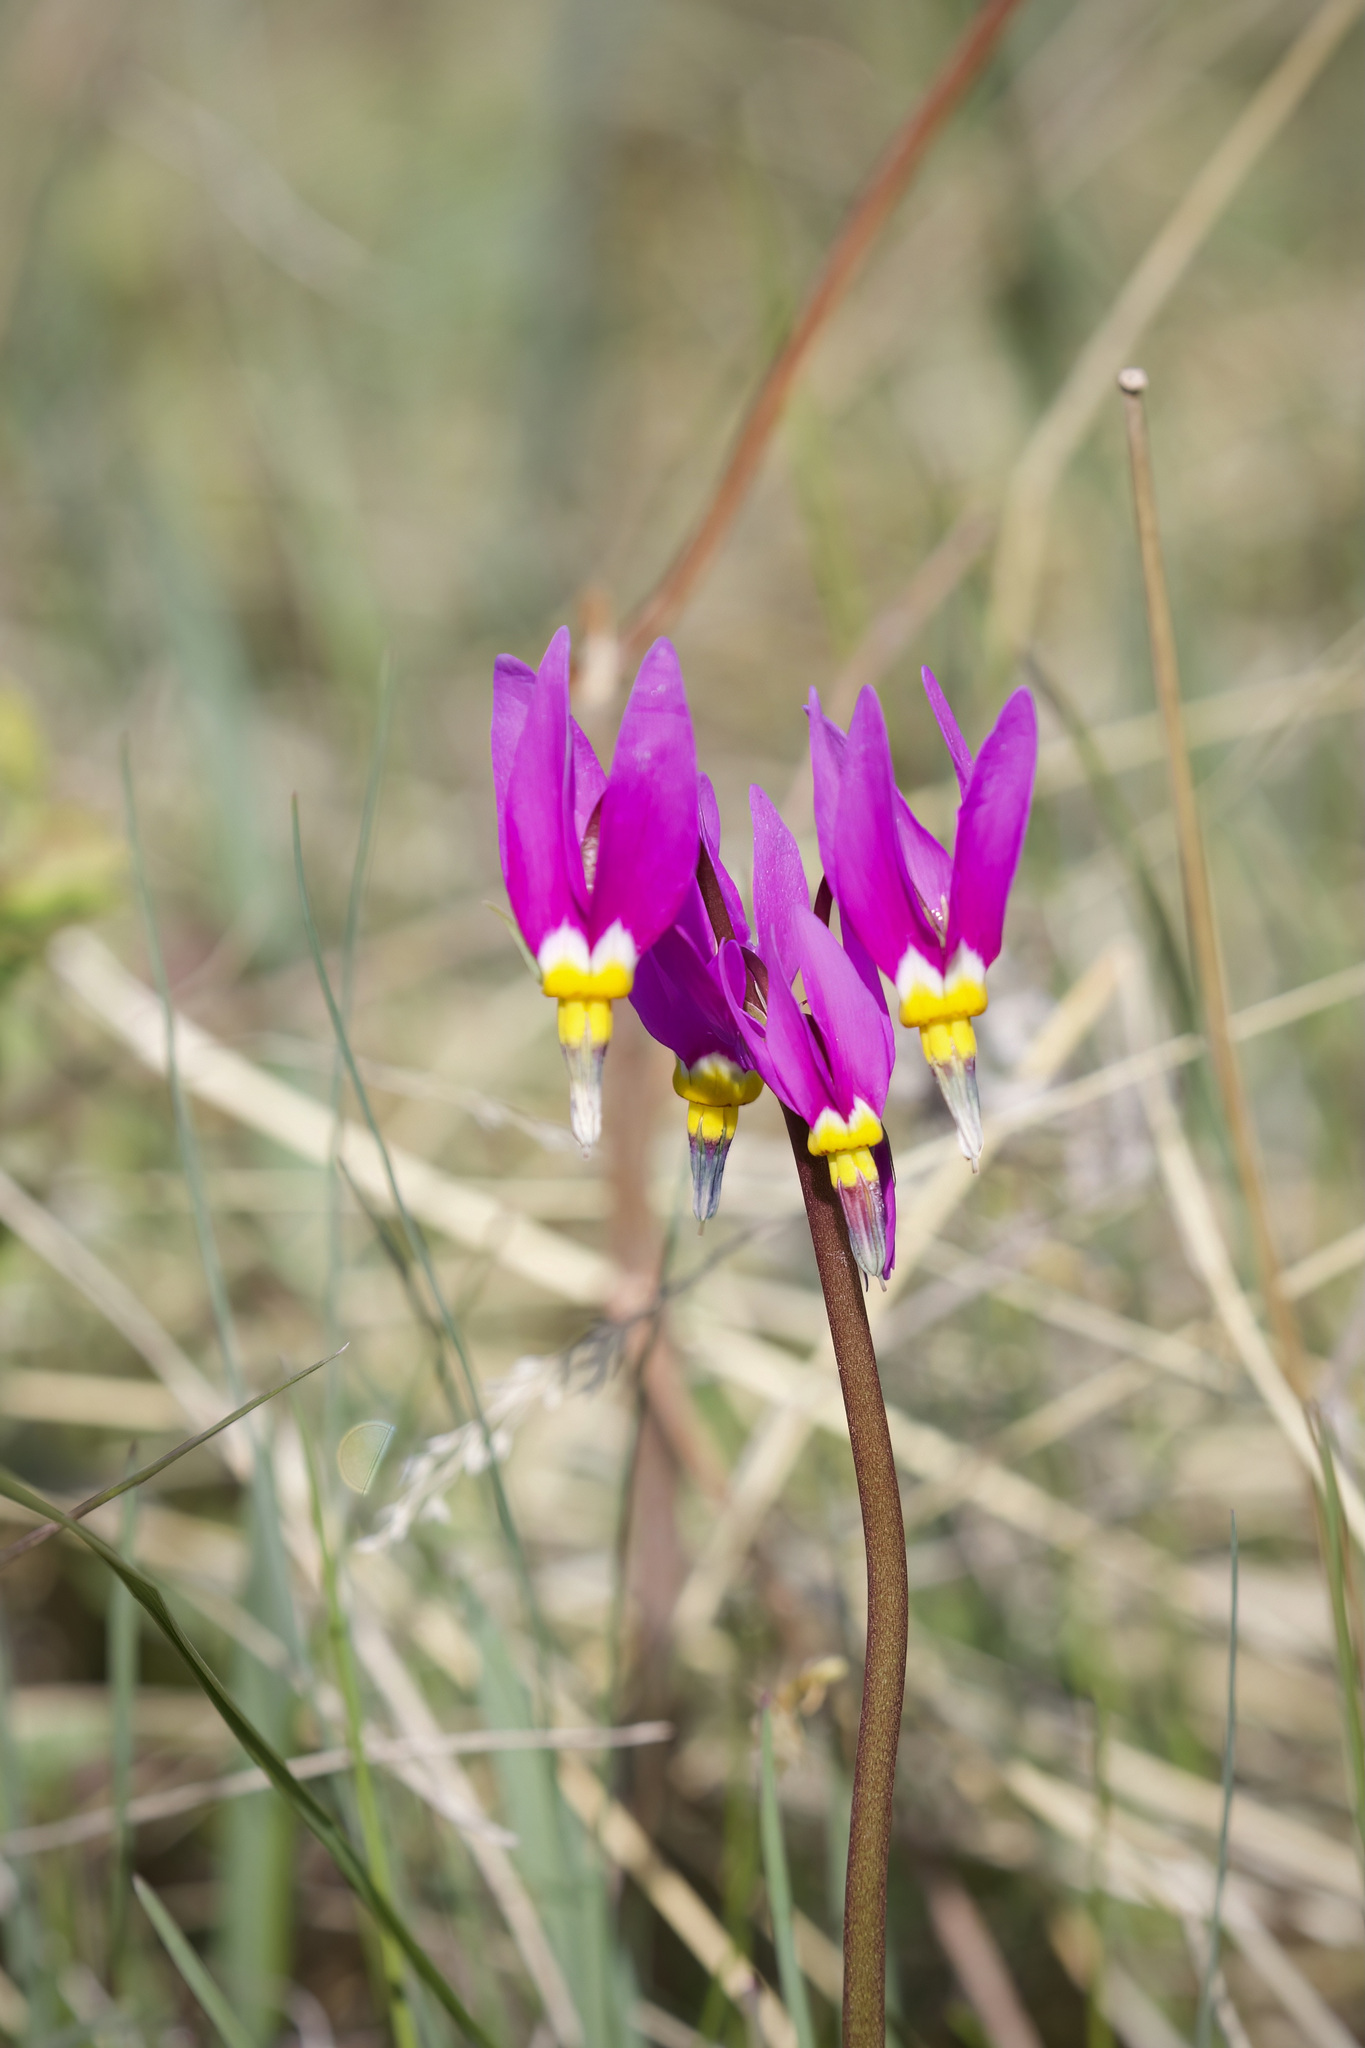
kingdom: Plantae
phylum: Tracheophyta
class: Magnoliopsida
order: Ericales
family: Primulaceae
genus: Dodecatheon
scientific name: Dodecatheon pulchellum
